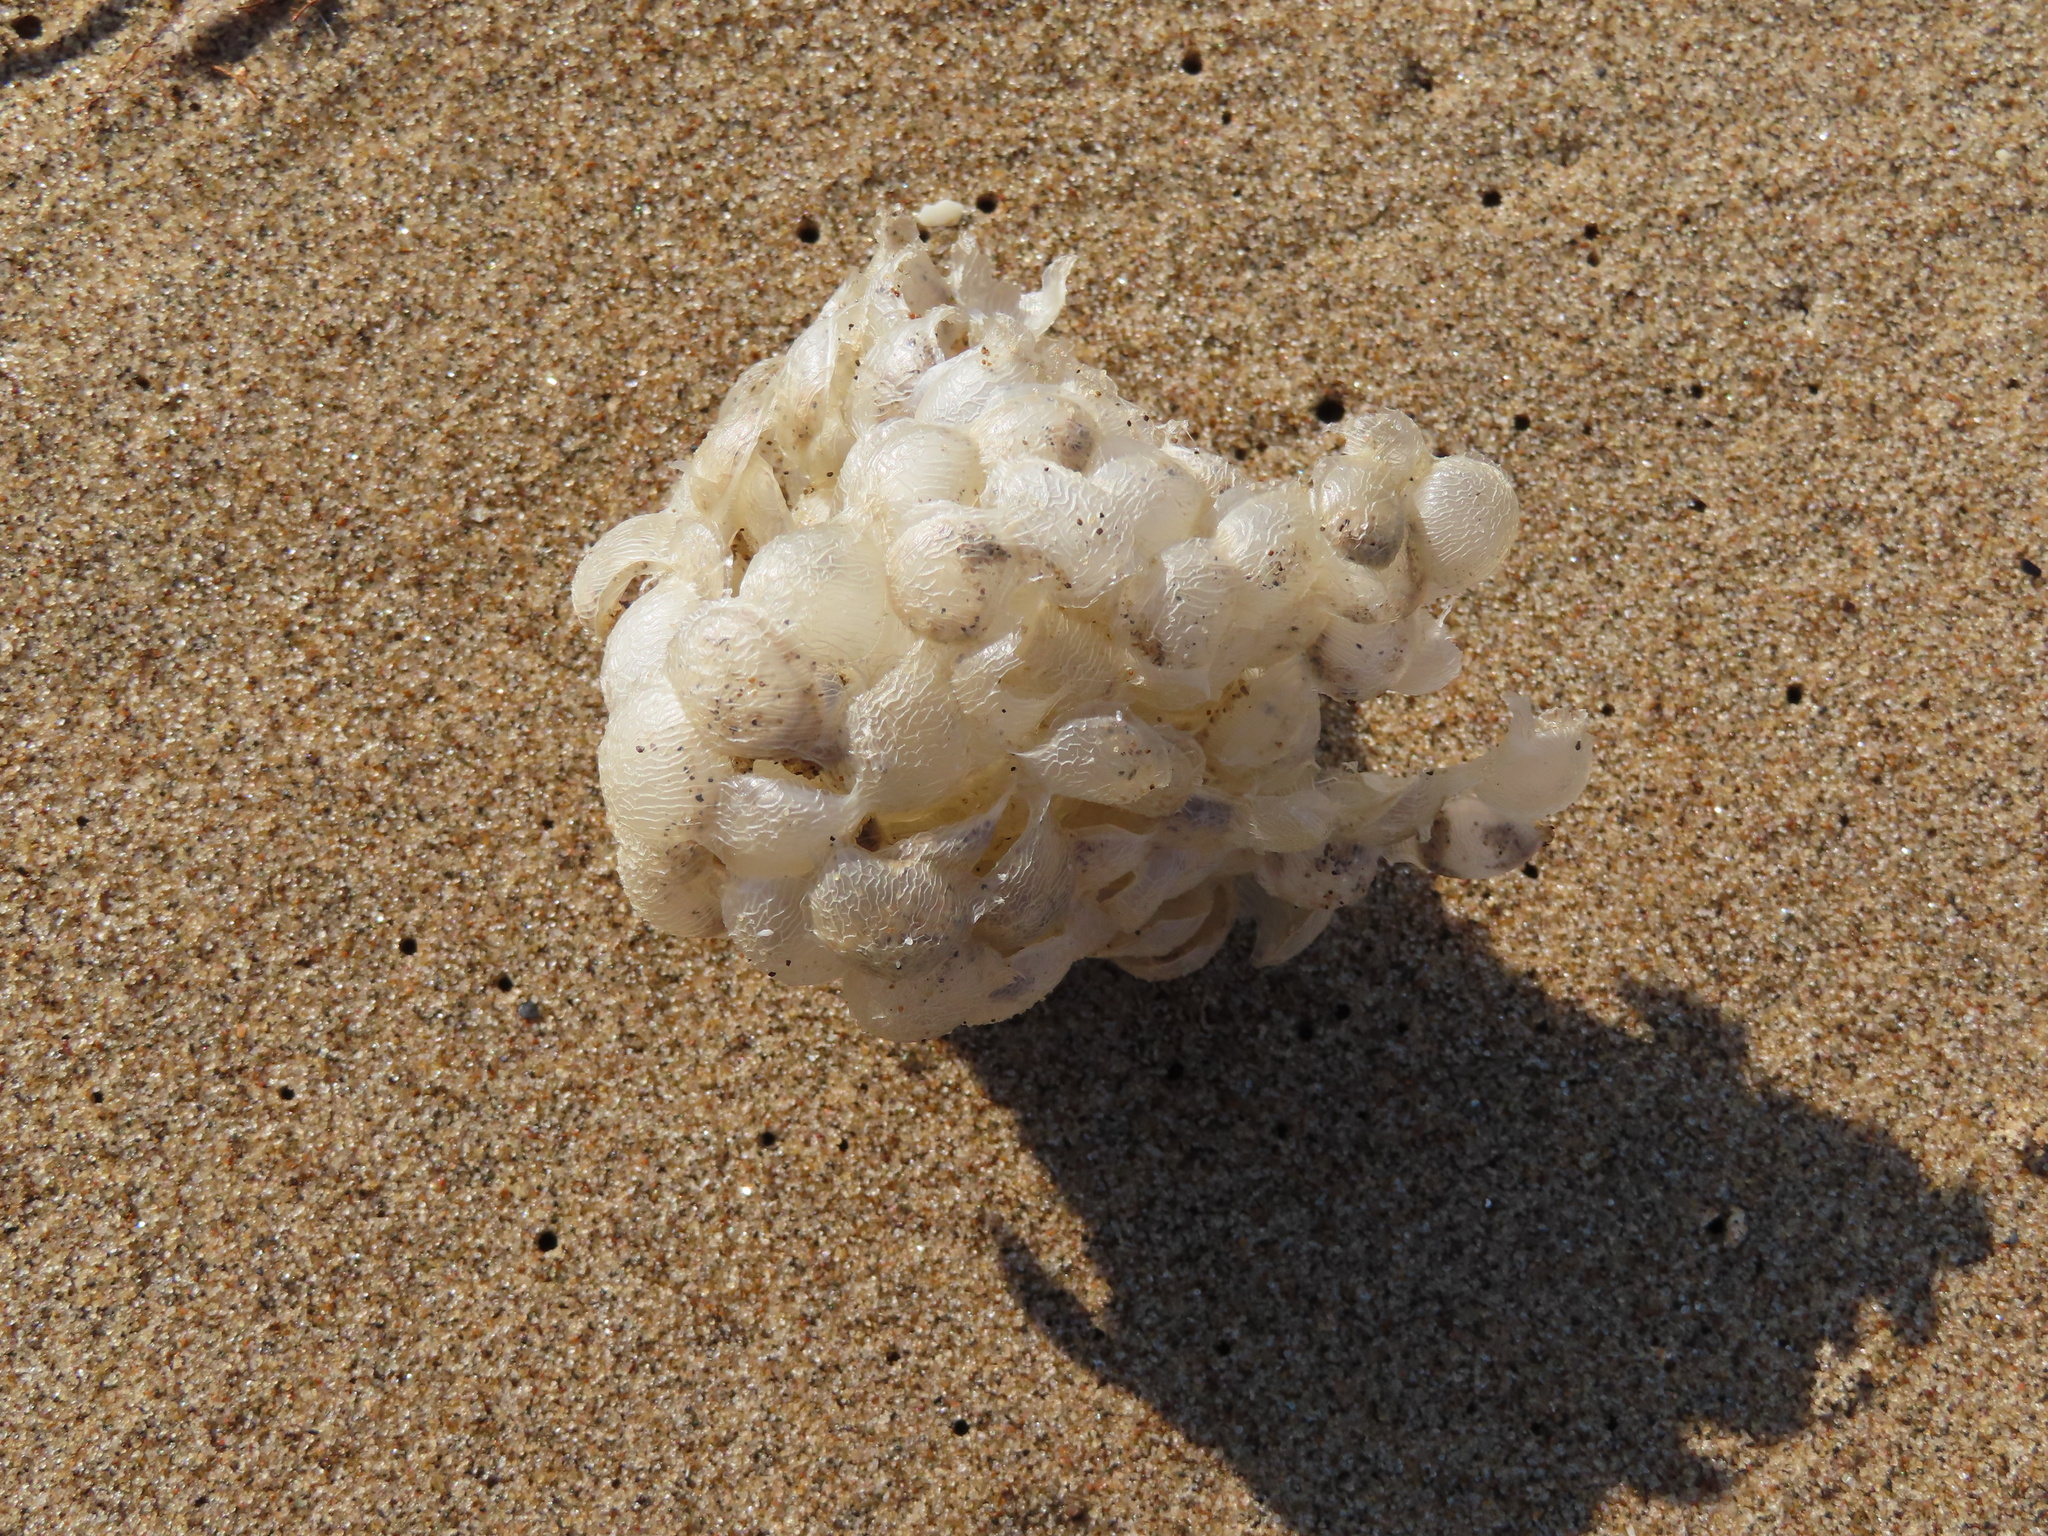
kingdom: Animalia
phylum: Mollusca
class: Gastropoda
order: Neogastropoda
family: Buccinidae
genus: Buccinum
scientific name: Buccinum undatum
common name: Common whelk
